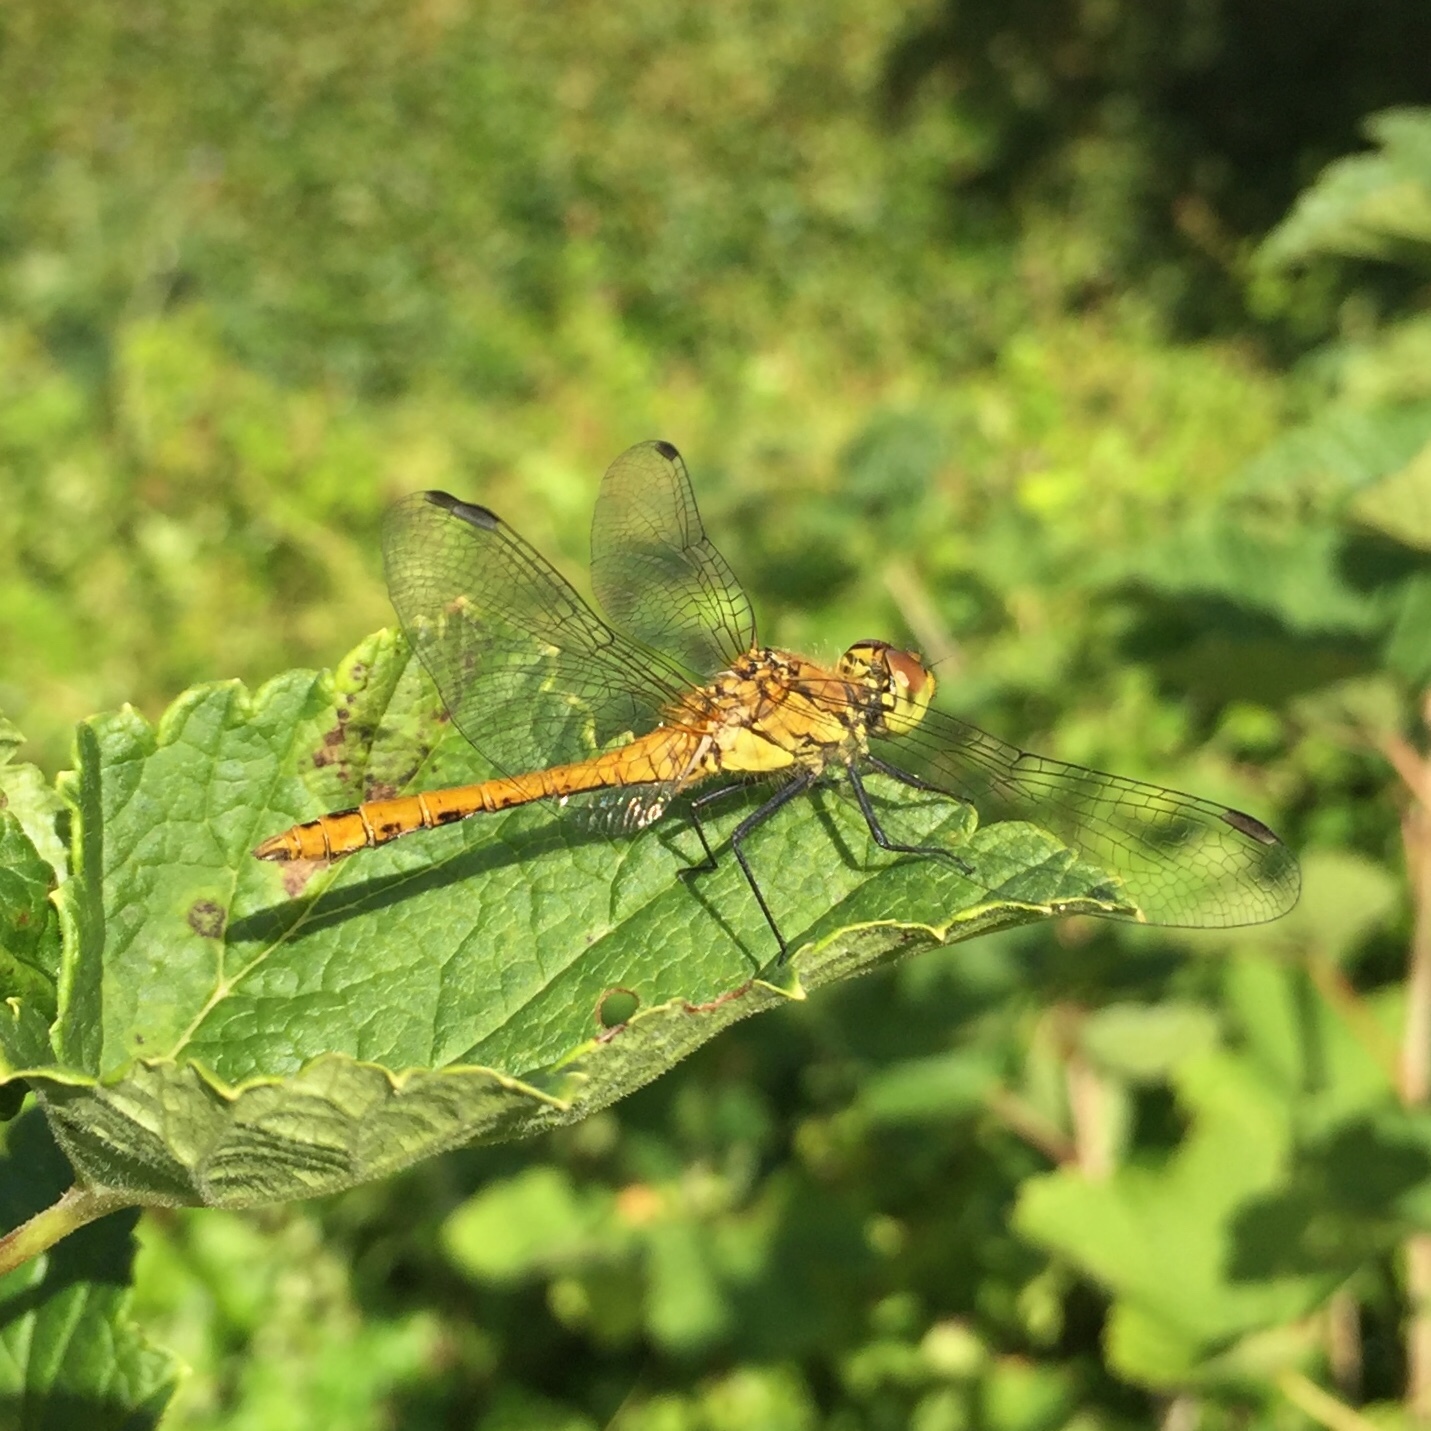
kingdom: Animalia
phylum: Arthropoda
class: Insecta
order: Odonata
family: Libellulidae
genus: Sympetrum
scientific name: Sympetrum sanguineum
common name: Ruddy darter
